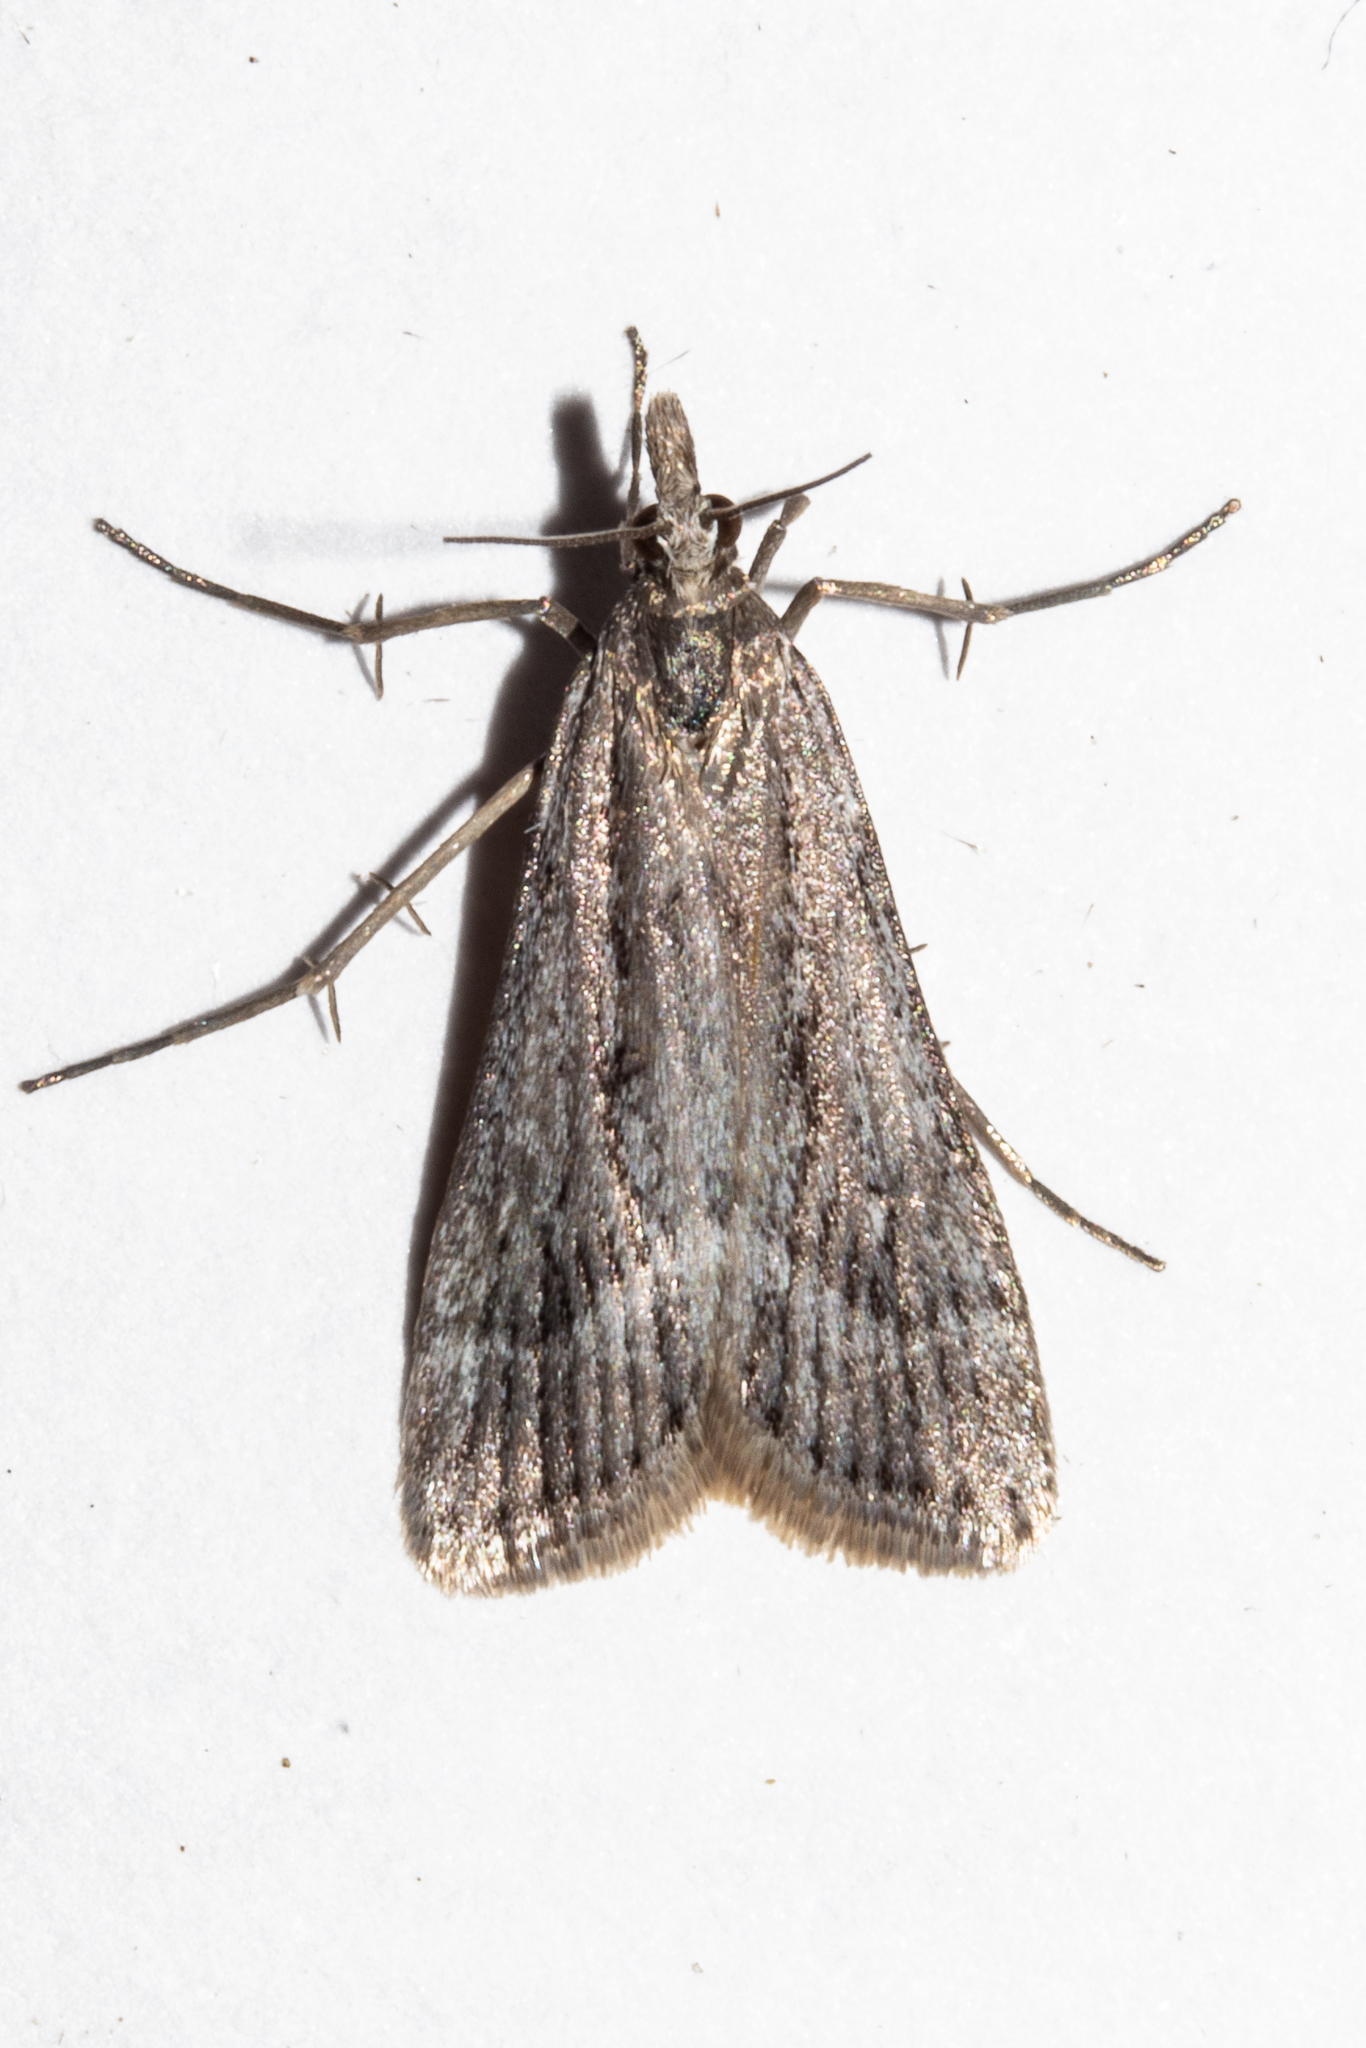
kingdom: Animalia
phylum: Arthropoda
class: Insecta
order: Lepidoptera
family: Crambidae
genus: Scoparia
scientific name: Scoparia exilis
